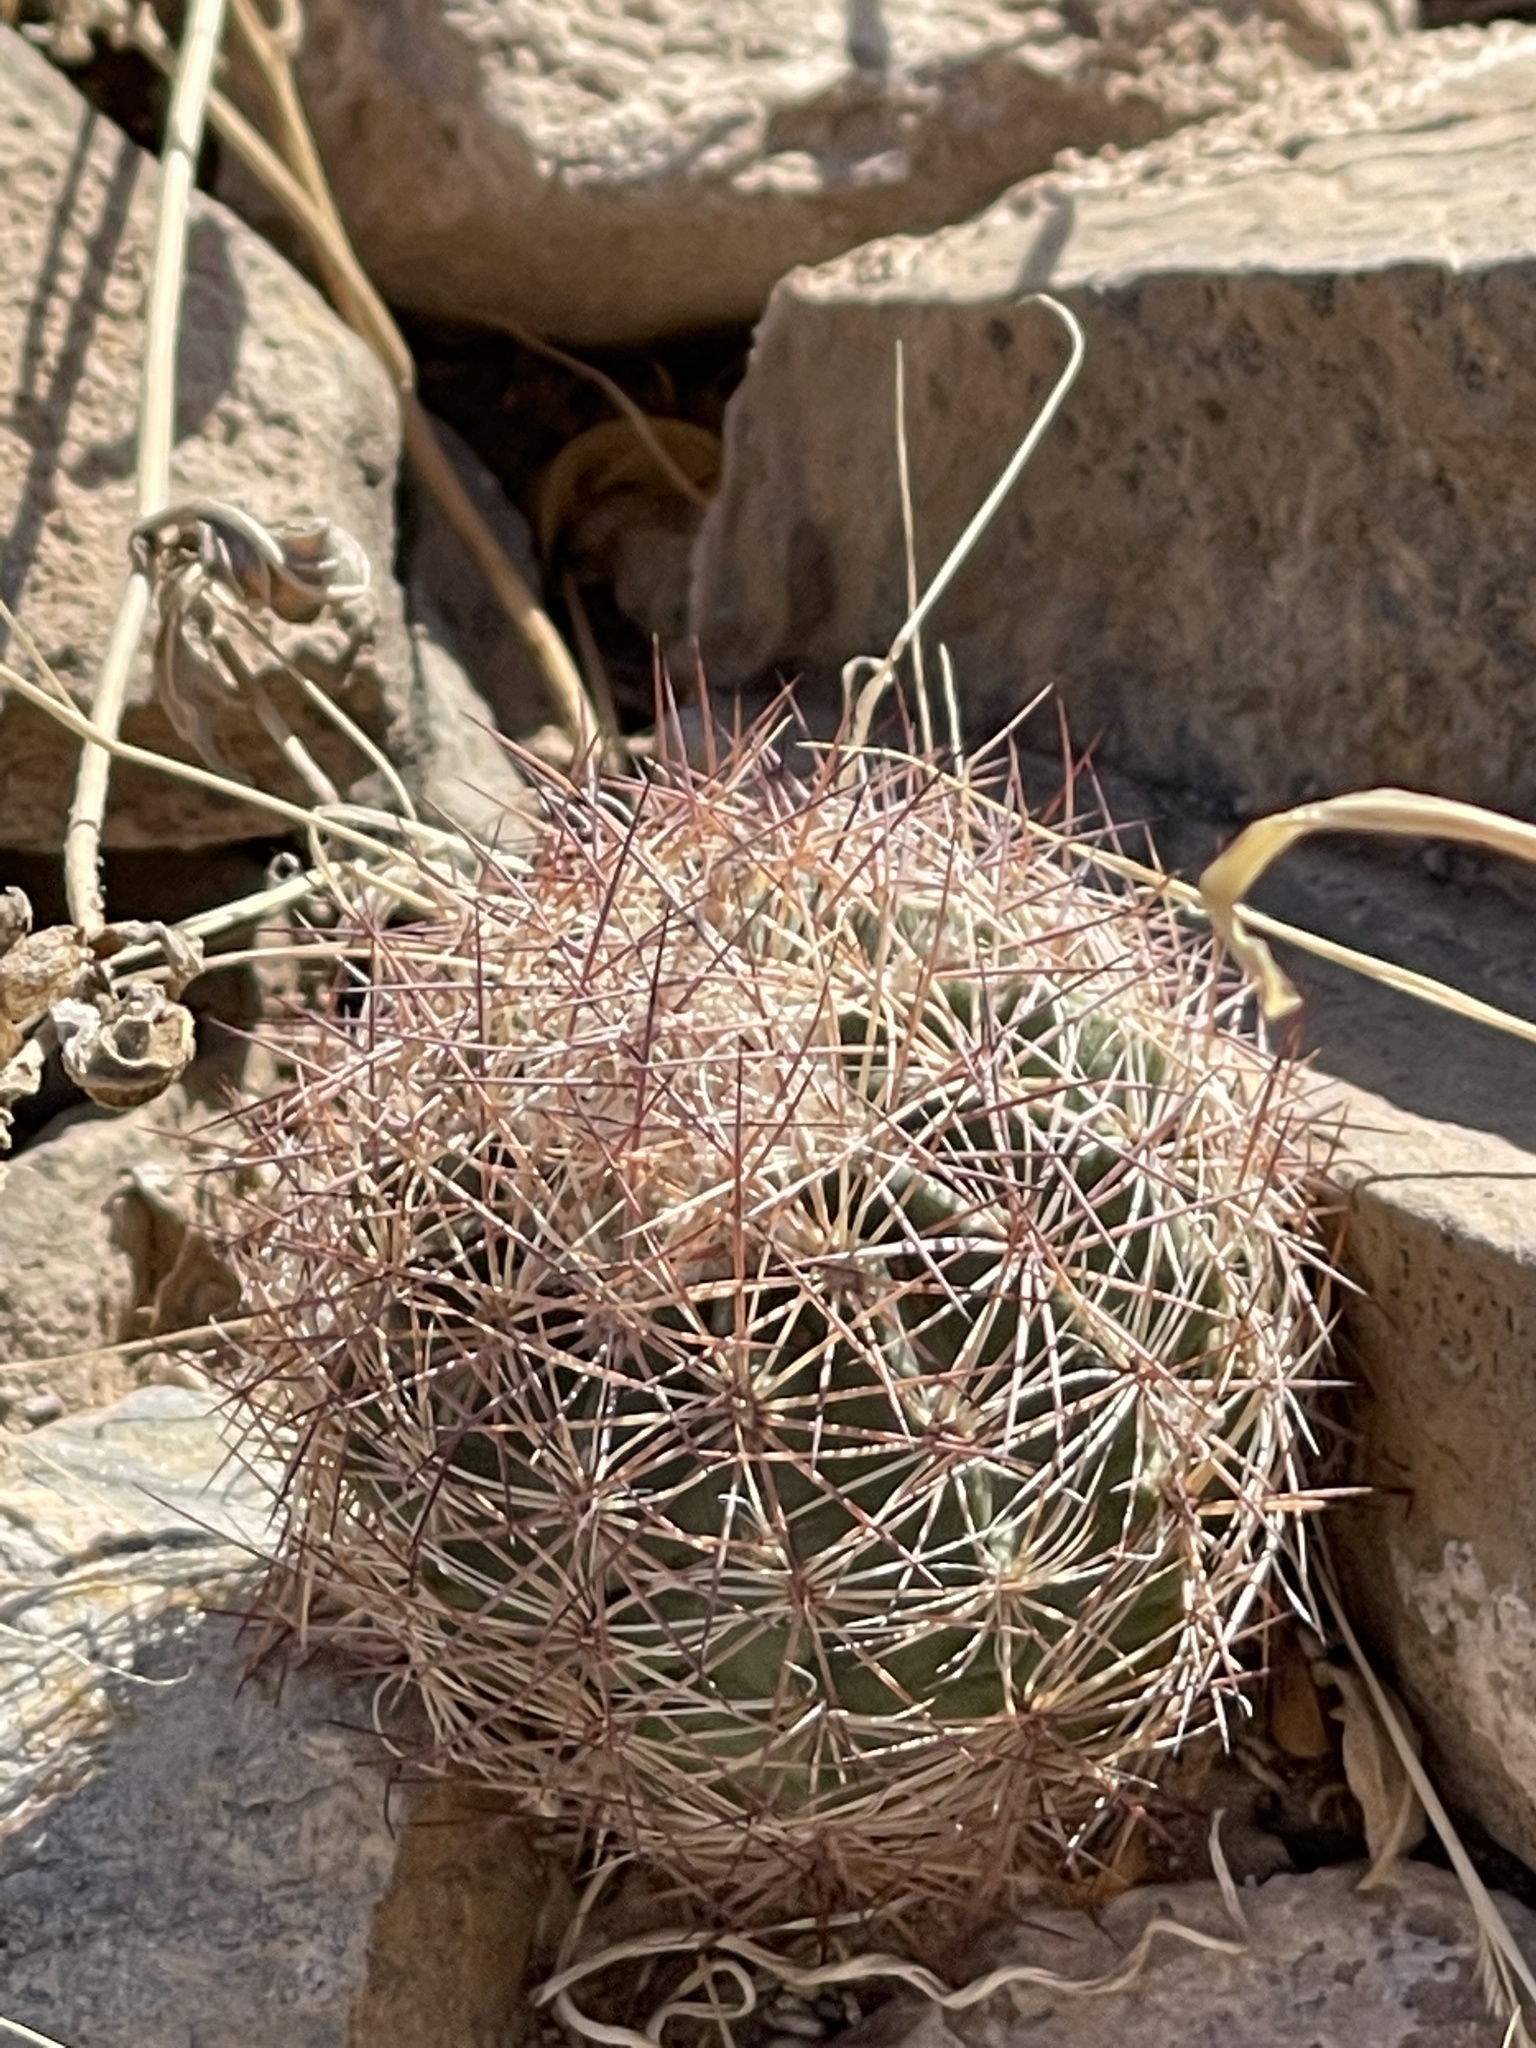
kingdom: Plantae
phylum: Tracheophyta
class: Magnoliopsida
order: Caryophyllales
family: Cactaceae
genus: Sclerocactus
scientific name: Sclerocactus intertextus
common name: White fish-hook cactus
